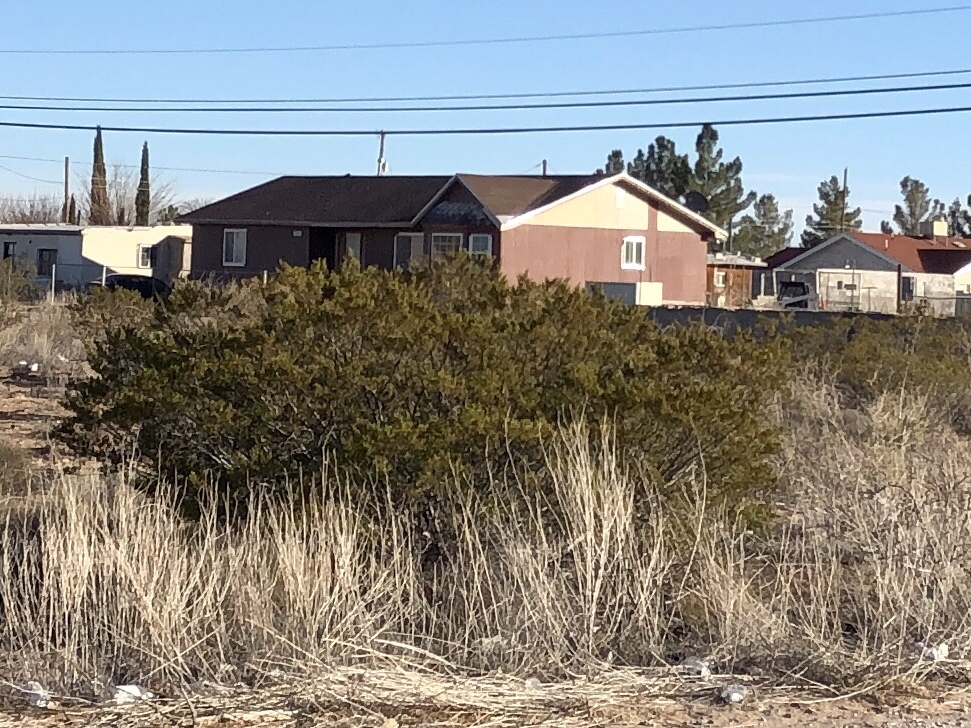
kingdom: Plantae
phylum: Tracheophyta
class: Magnoliopsida
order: Zygophyllales
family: Zygophyllaceae
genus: Larrea
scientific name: Larrea tridentata
